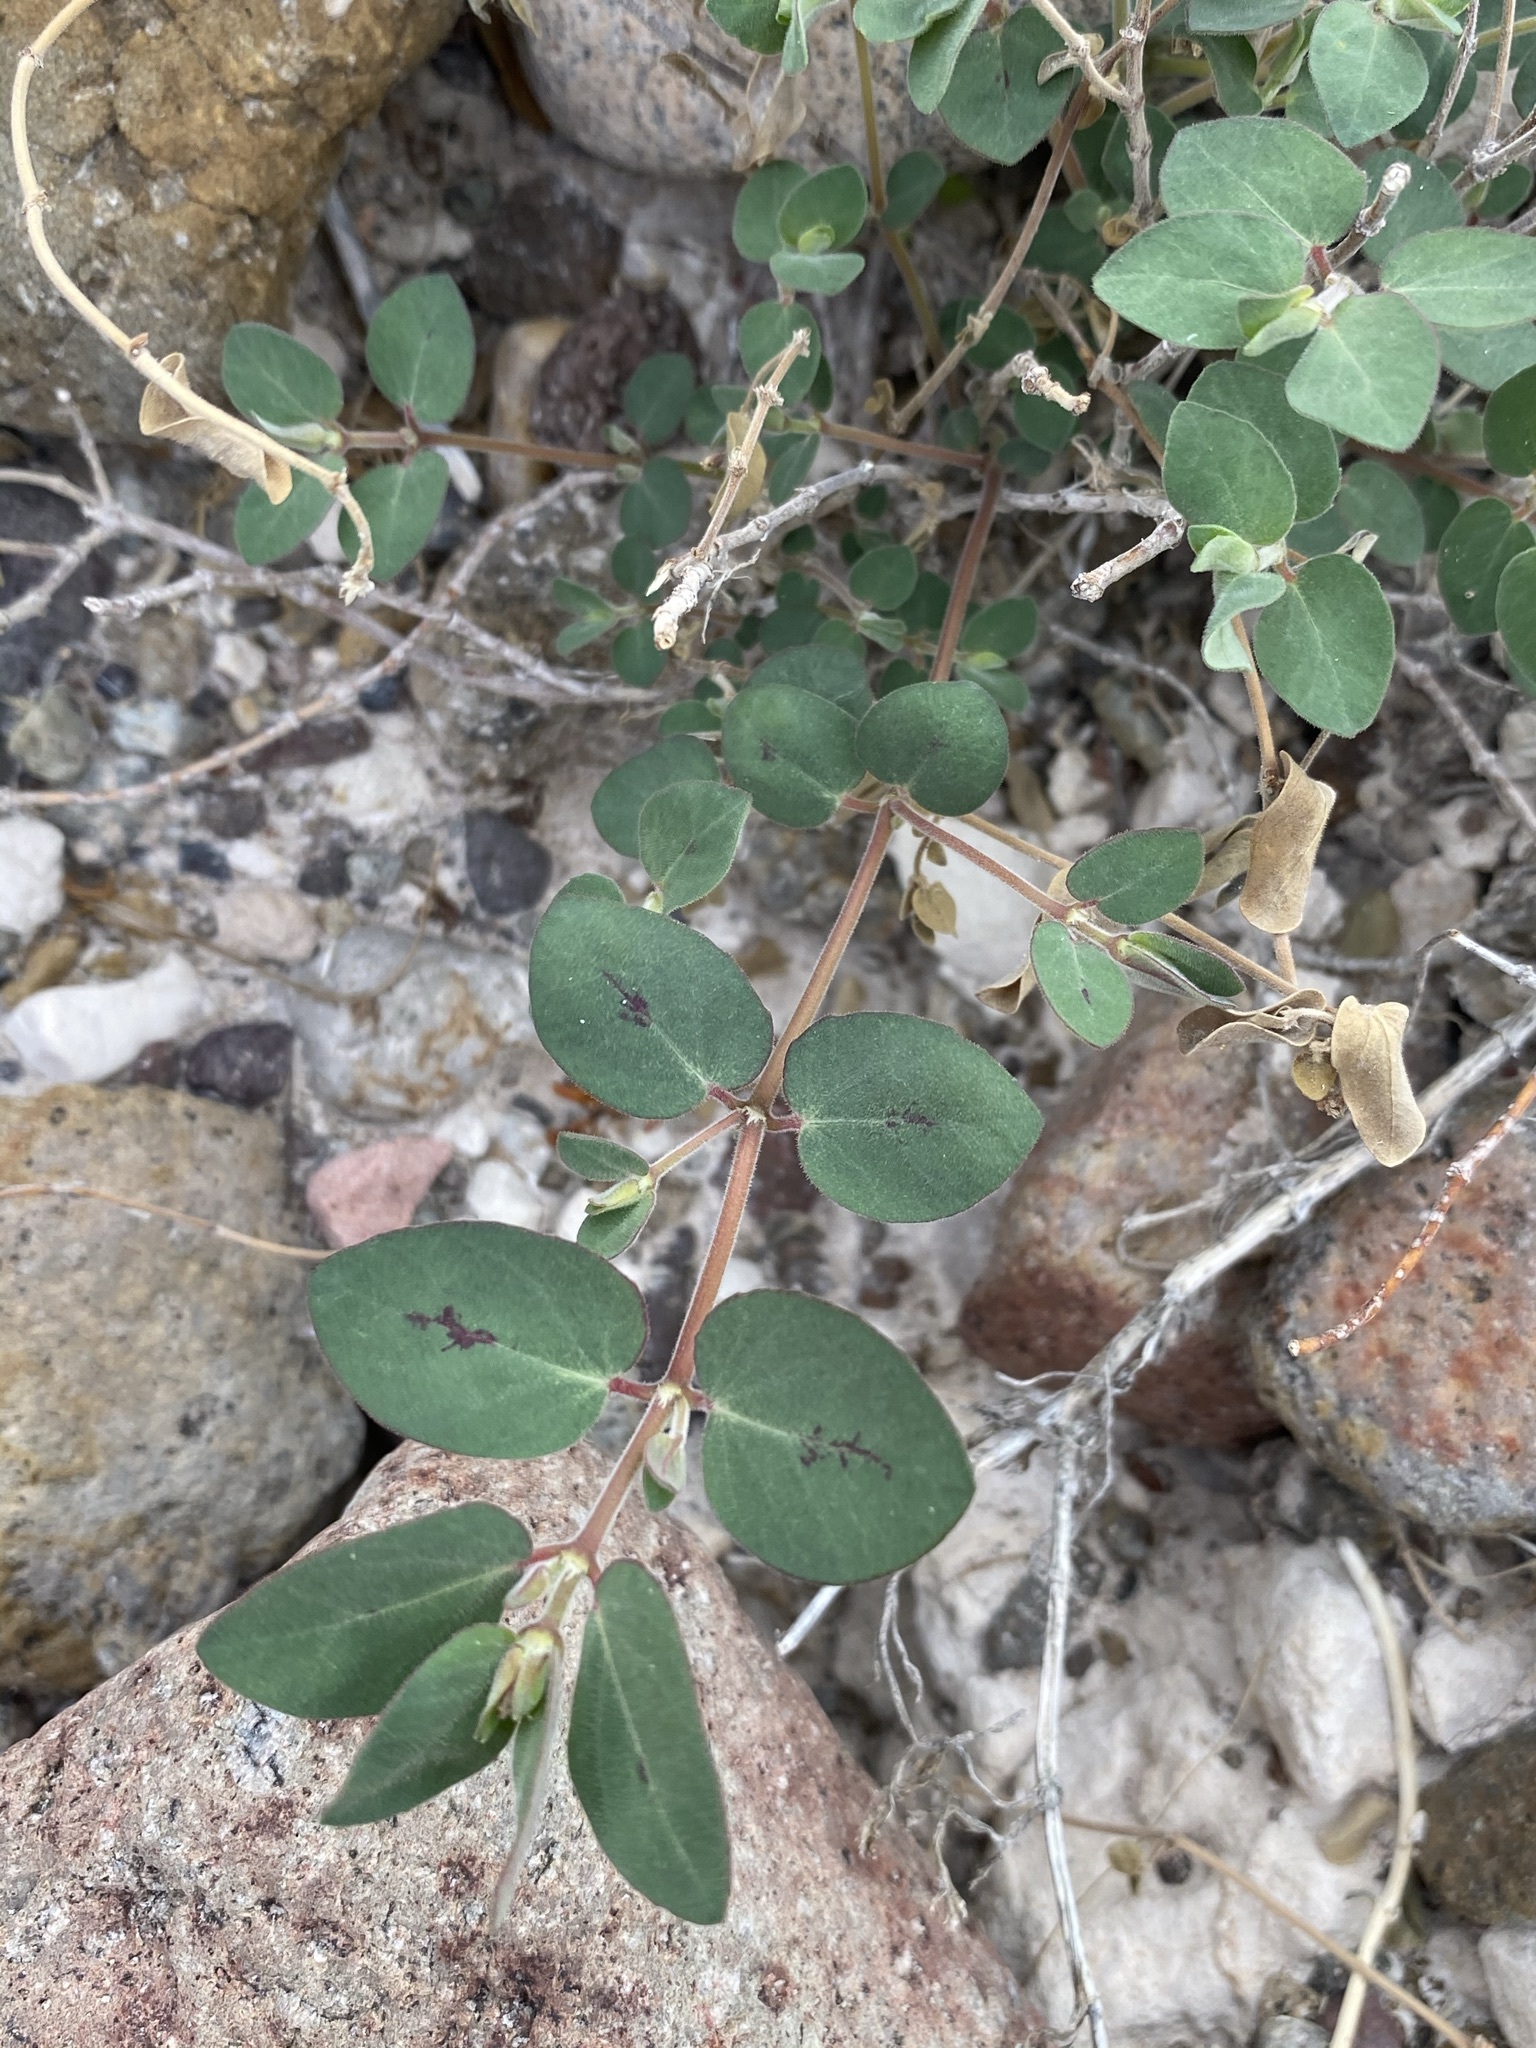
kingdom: Plantae
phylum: Tracheophyta
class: Magnoliopsida
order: Malpighiales
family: Euphorbiaceae
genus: Euphorbia
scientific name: Euphorbia capitellata
